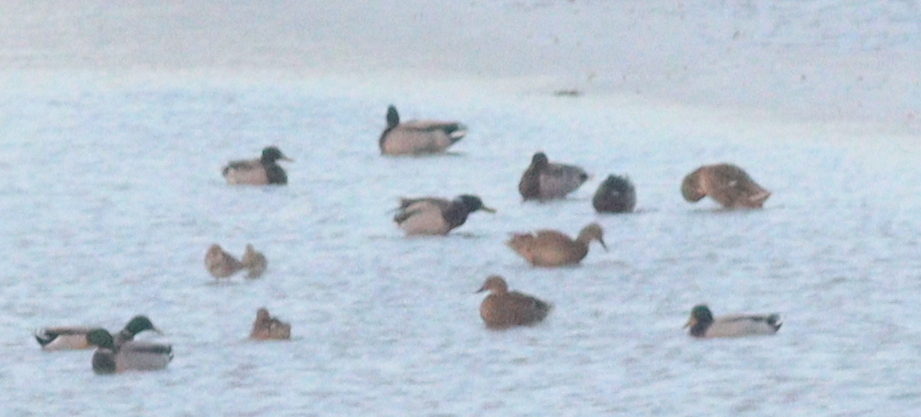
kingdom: Animalia
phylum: Chordata
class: Aves
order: Anseriformes
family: Anatidae
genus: Anas
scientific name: Anas platyrhynchos
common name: Mallard
